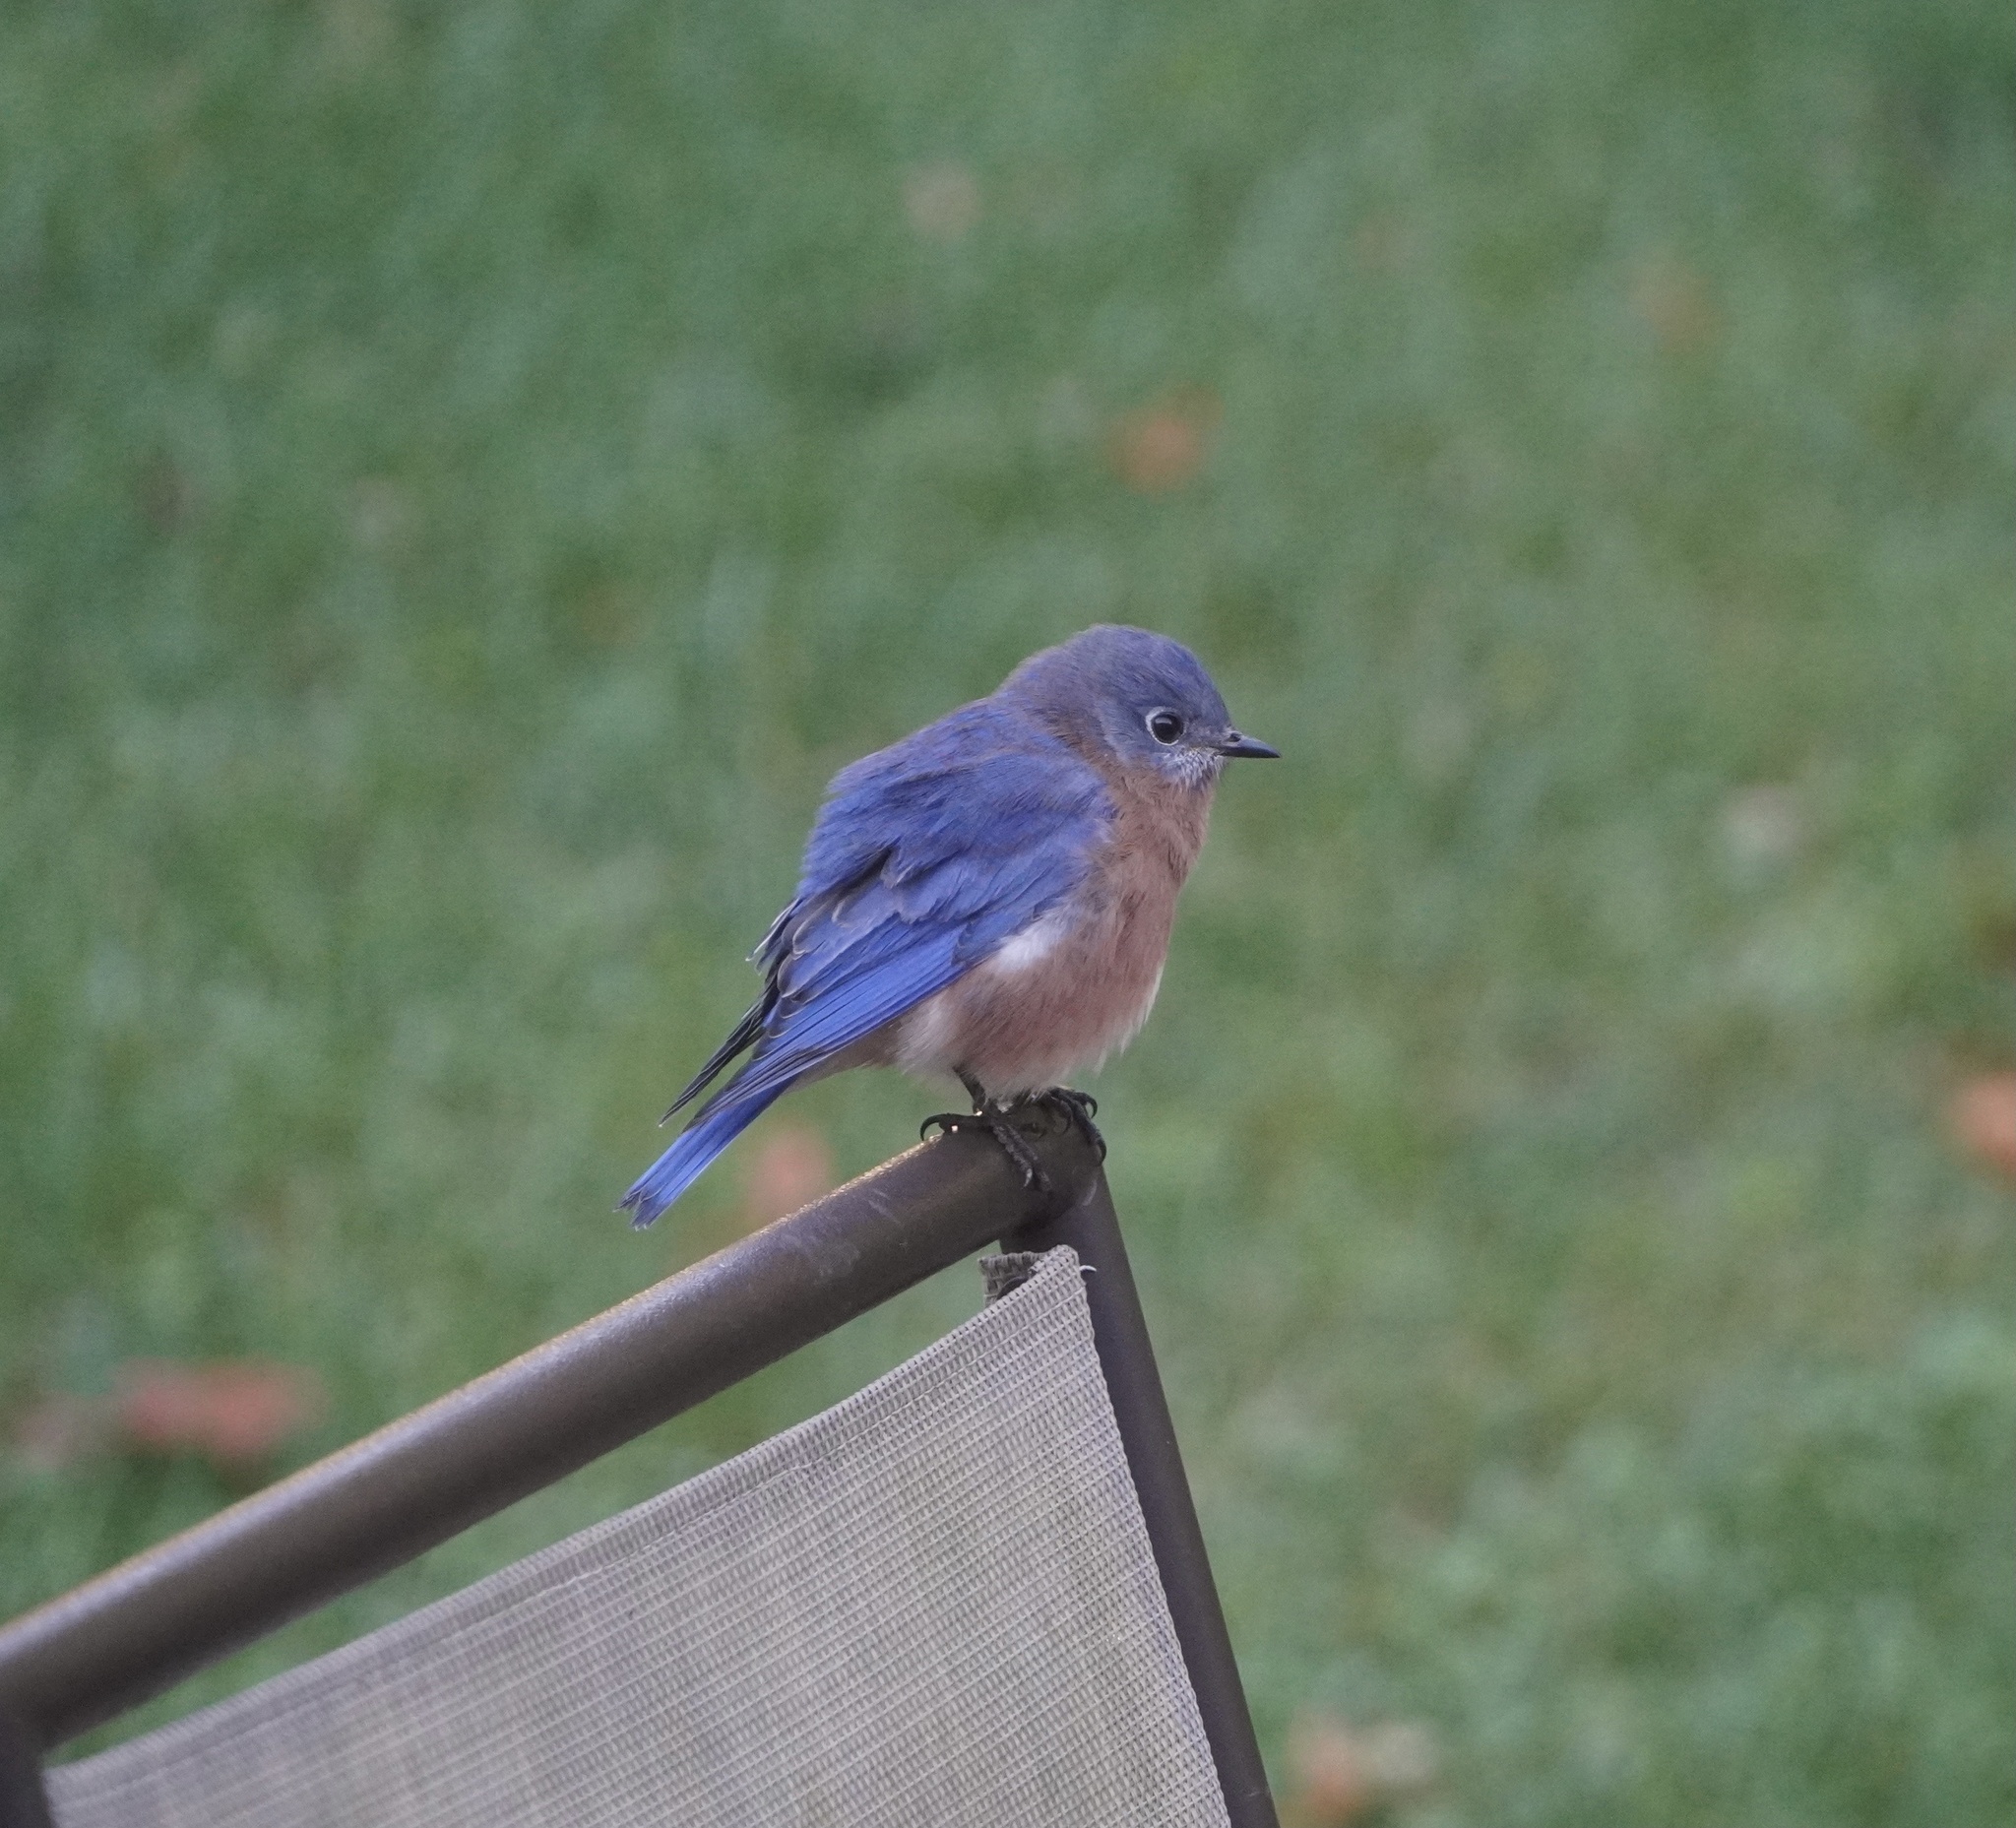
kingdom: Animalia
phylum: Chordata
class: Aves
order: Passeriformes
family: Turdidae
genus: Sialia
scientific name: Sialia sialis
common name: Eastern bluebird
